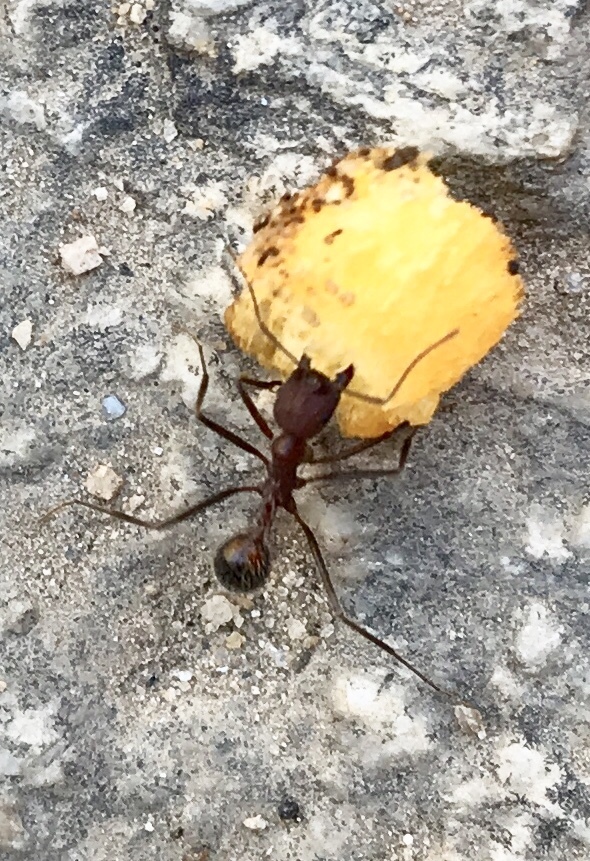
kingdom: Animalia
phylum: Arthropoda
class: Insecta
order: Hymenoptera
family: Formicidae
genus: Novomessor
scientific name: Novomessor albisetosa
